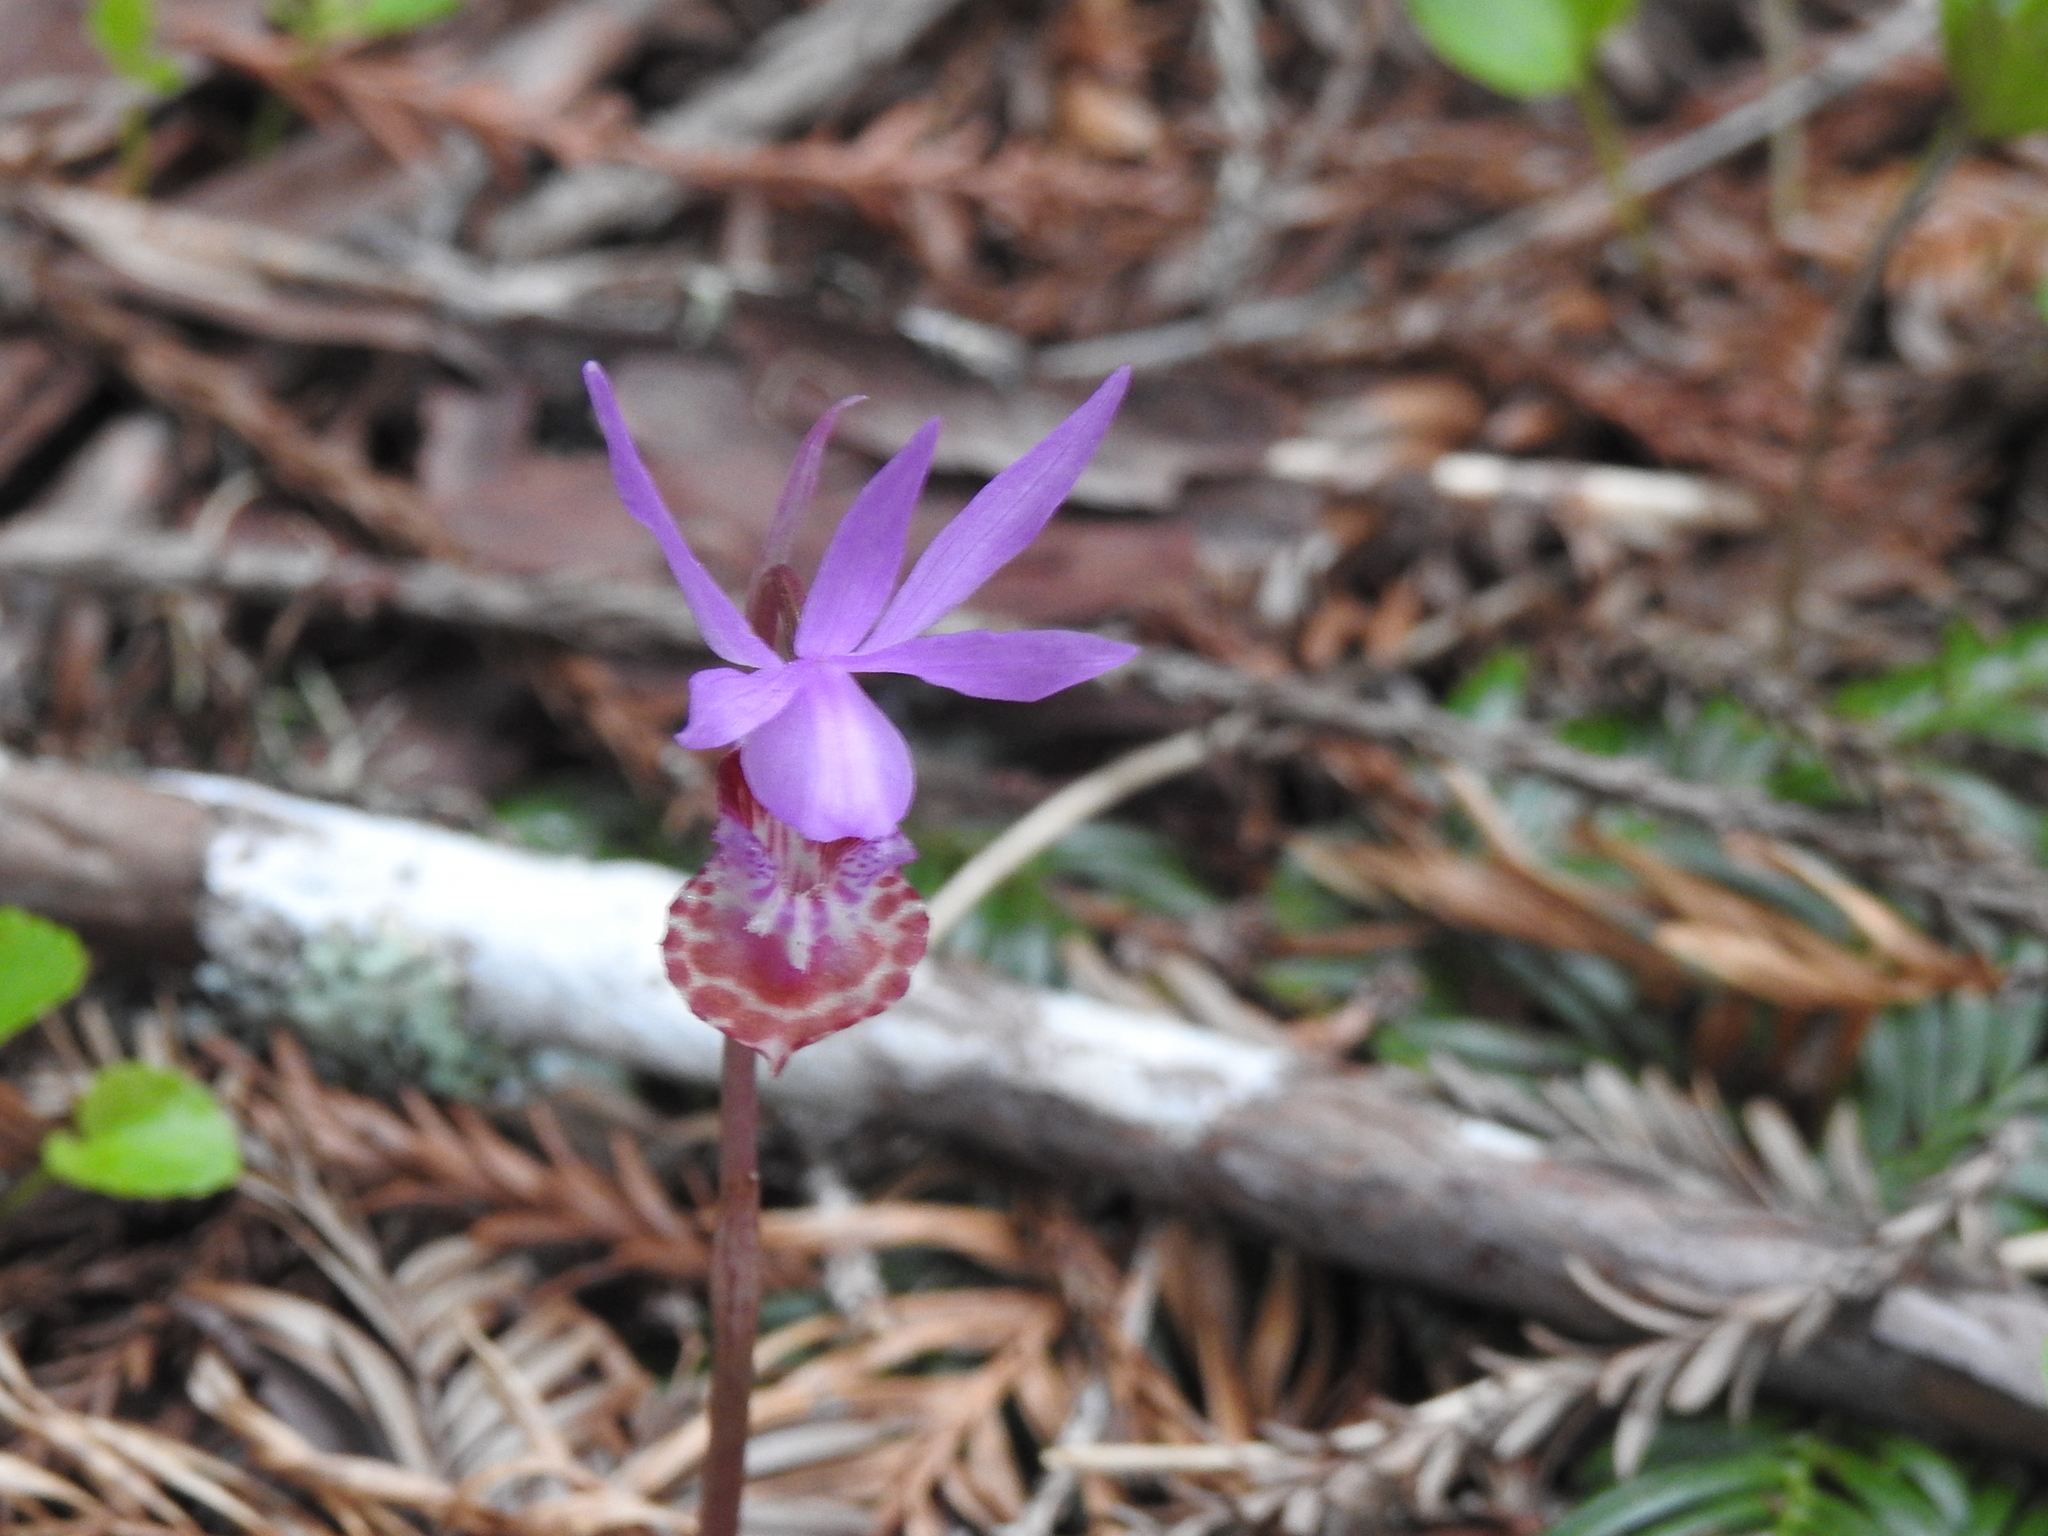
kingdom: Plantae
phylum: Tracheophyta
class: Liliopsida
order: Asparagales
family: Orchidaceae
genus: Calypso
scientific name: Calypso bulbosa
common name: Calypso
